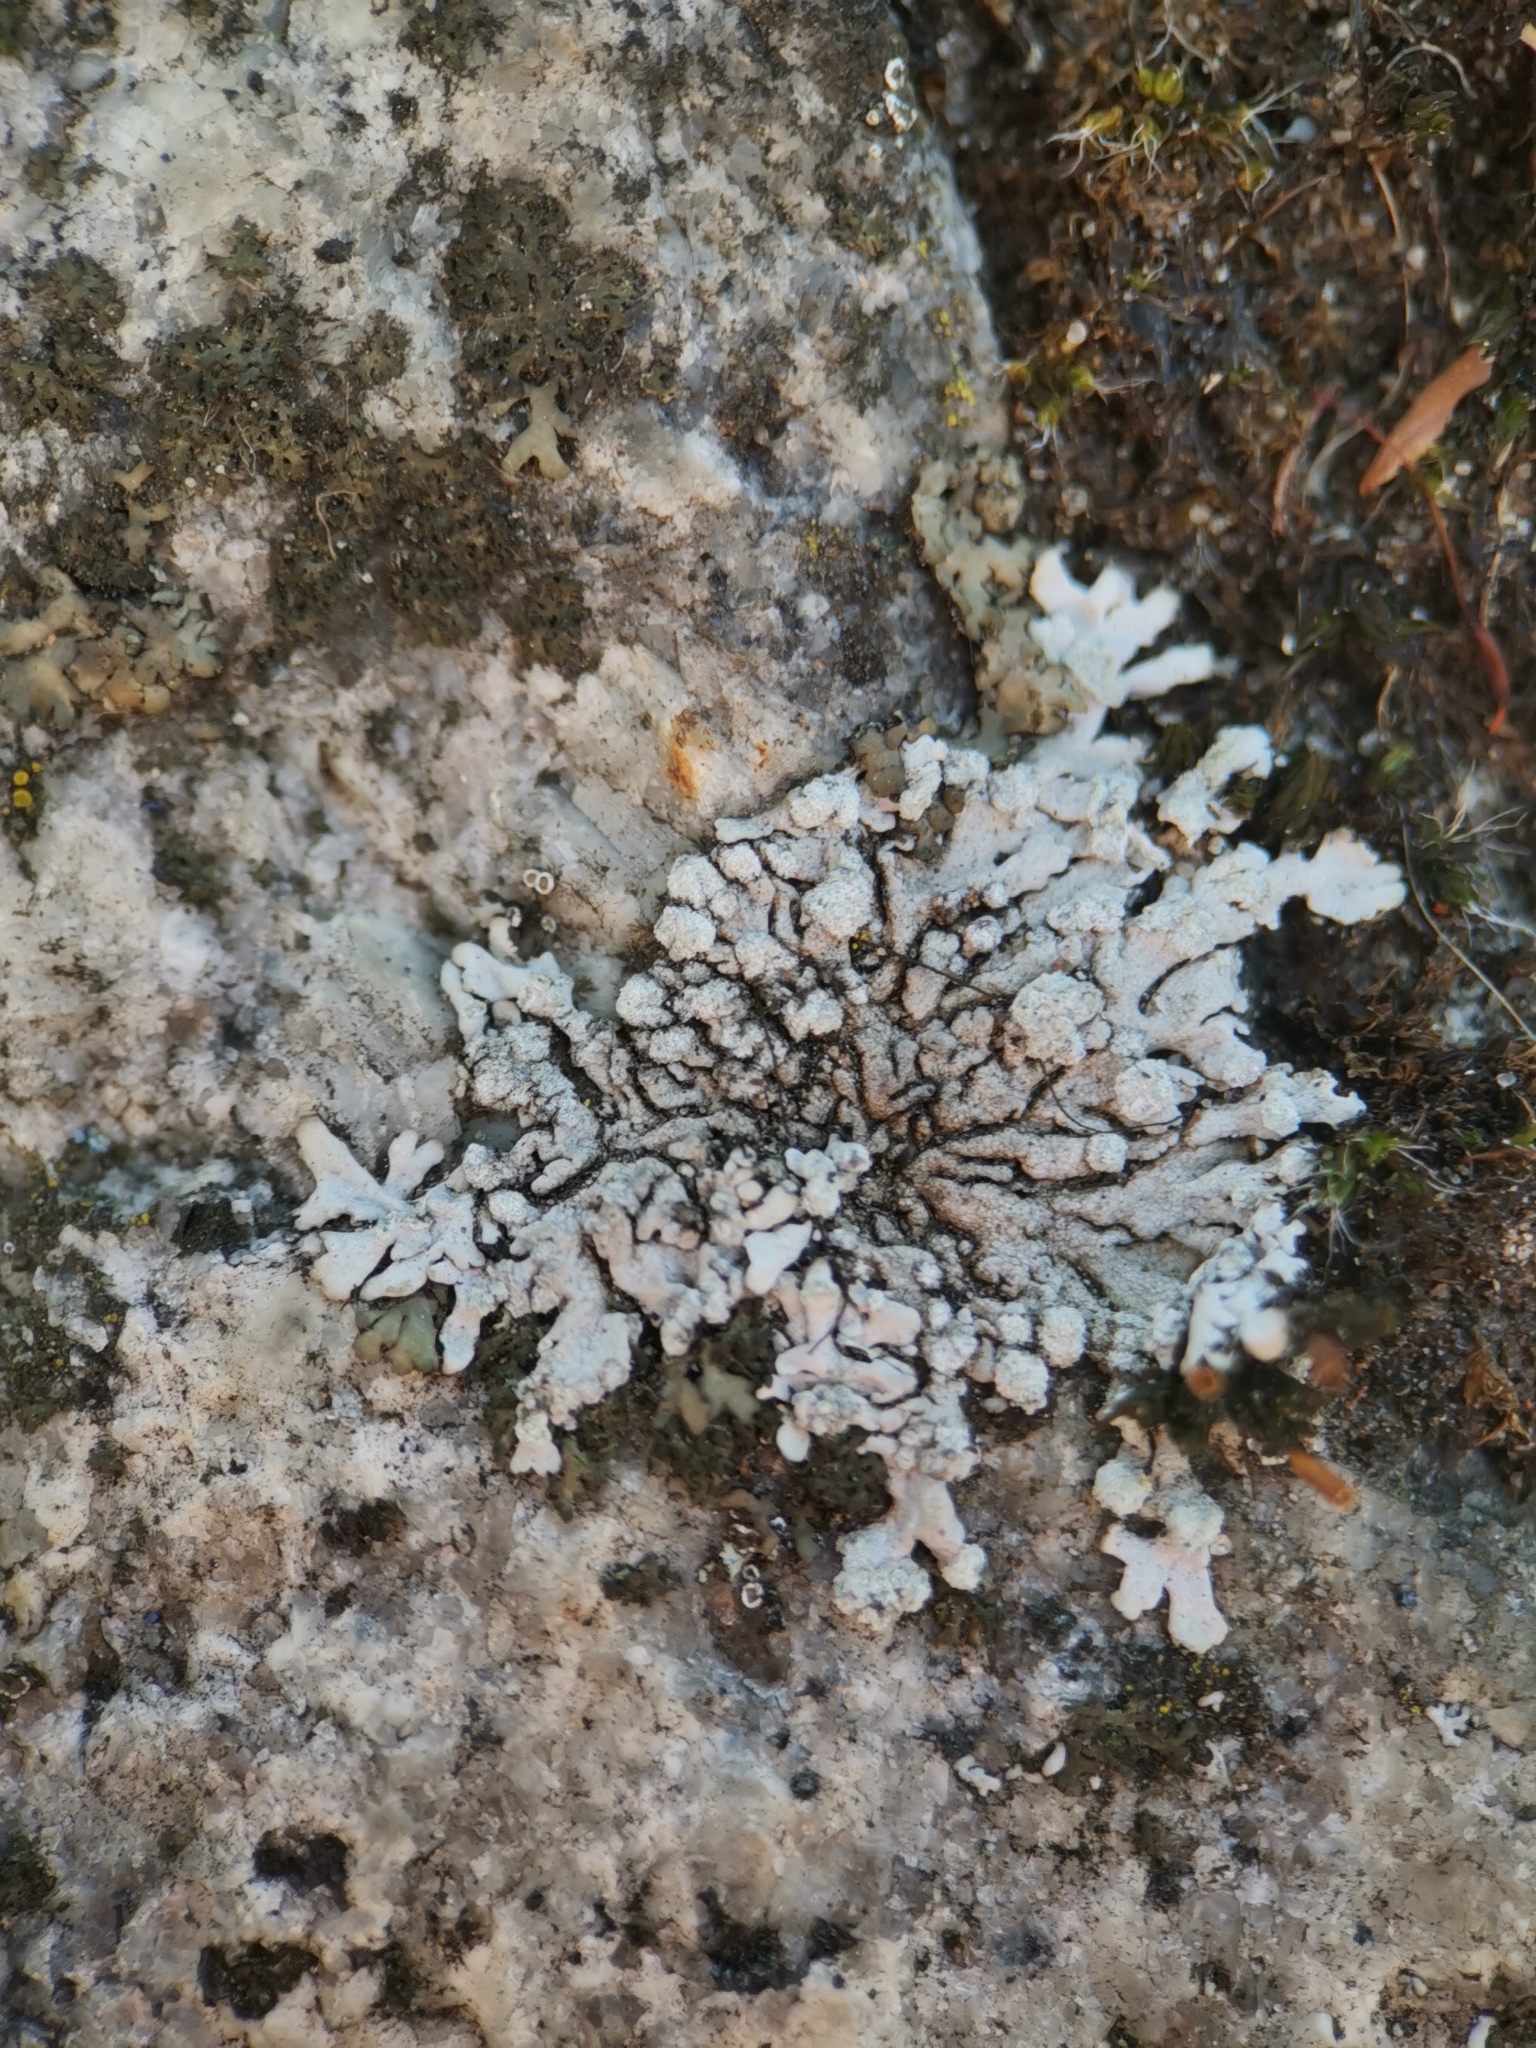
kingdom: Fungi
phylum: Ascomycota
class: Lecanoromycetes
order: Caliciales
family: Physciaceae
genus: Physcia
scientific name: Physcia caesia
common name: Blue-gray rosette lichen
